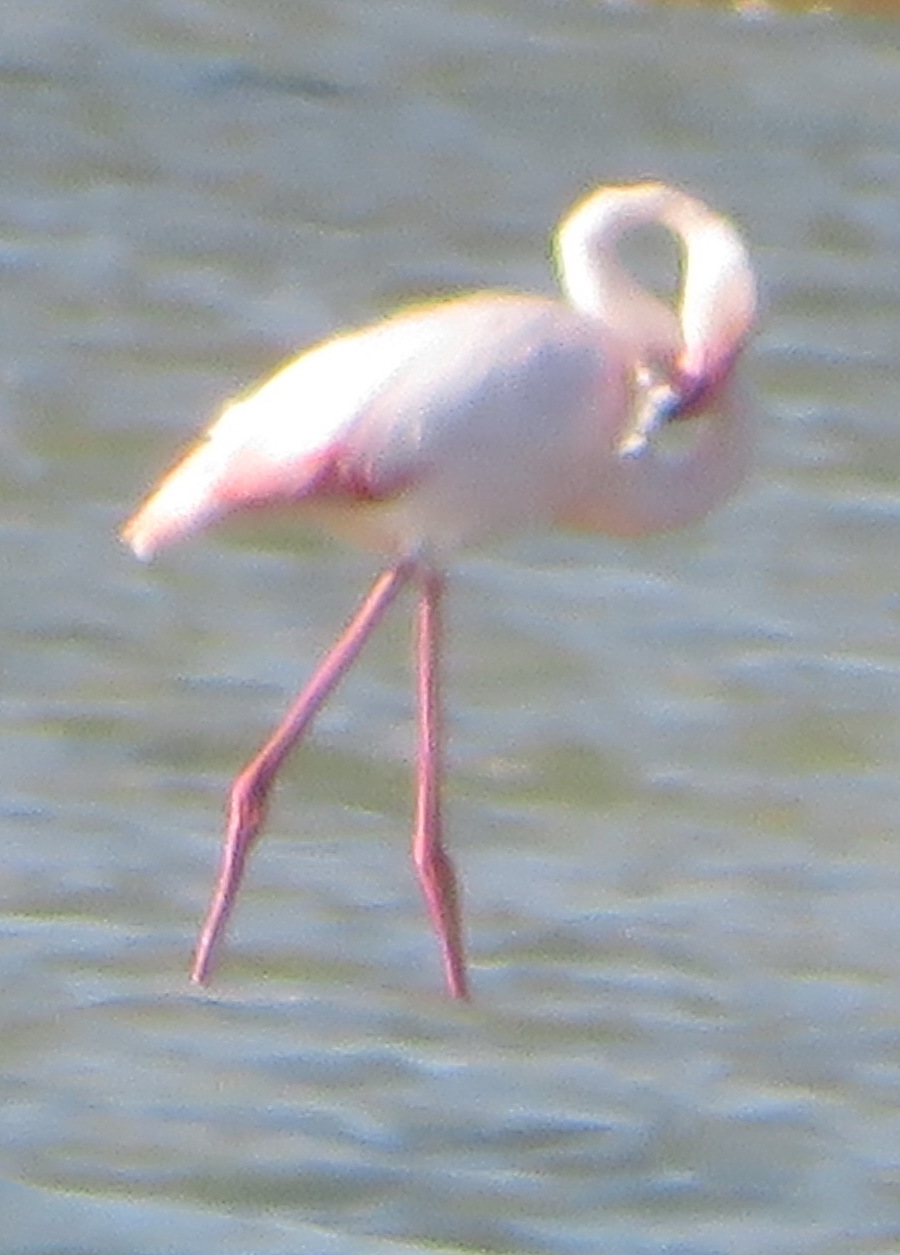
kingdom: Animalia
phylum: Chordata
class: Aves
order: Phoenicopteriformes
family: Phoenicopteridae
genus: Phoenicopterus
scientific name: Phoenicopterus roseus
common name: Greater flamingo
